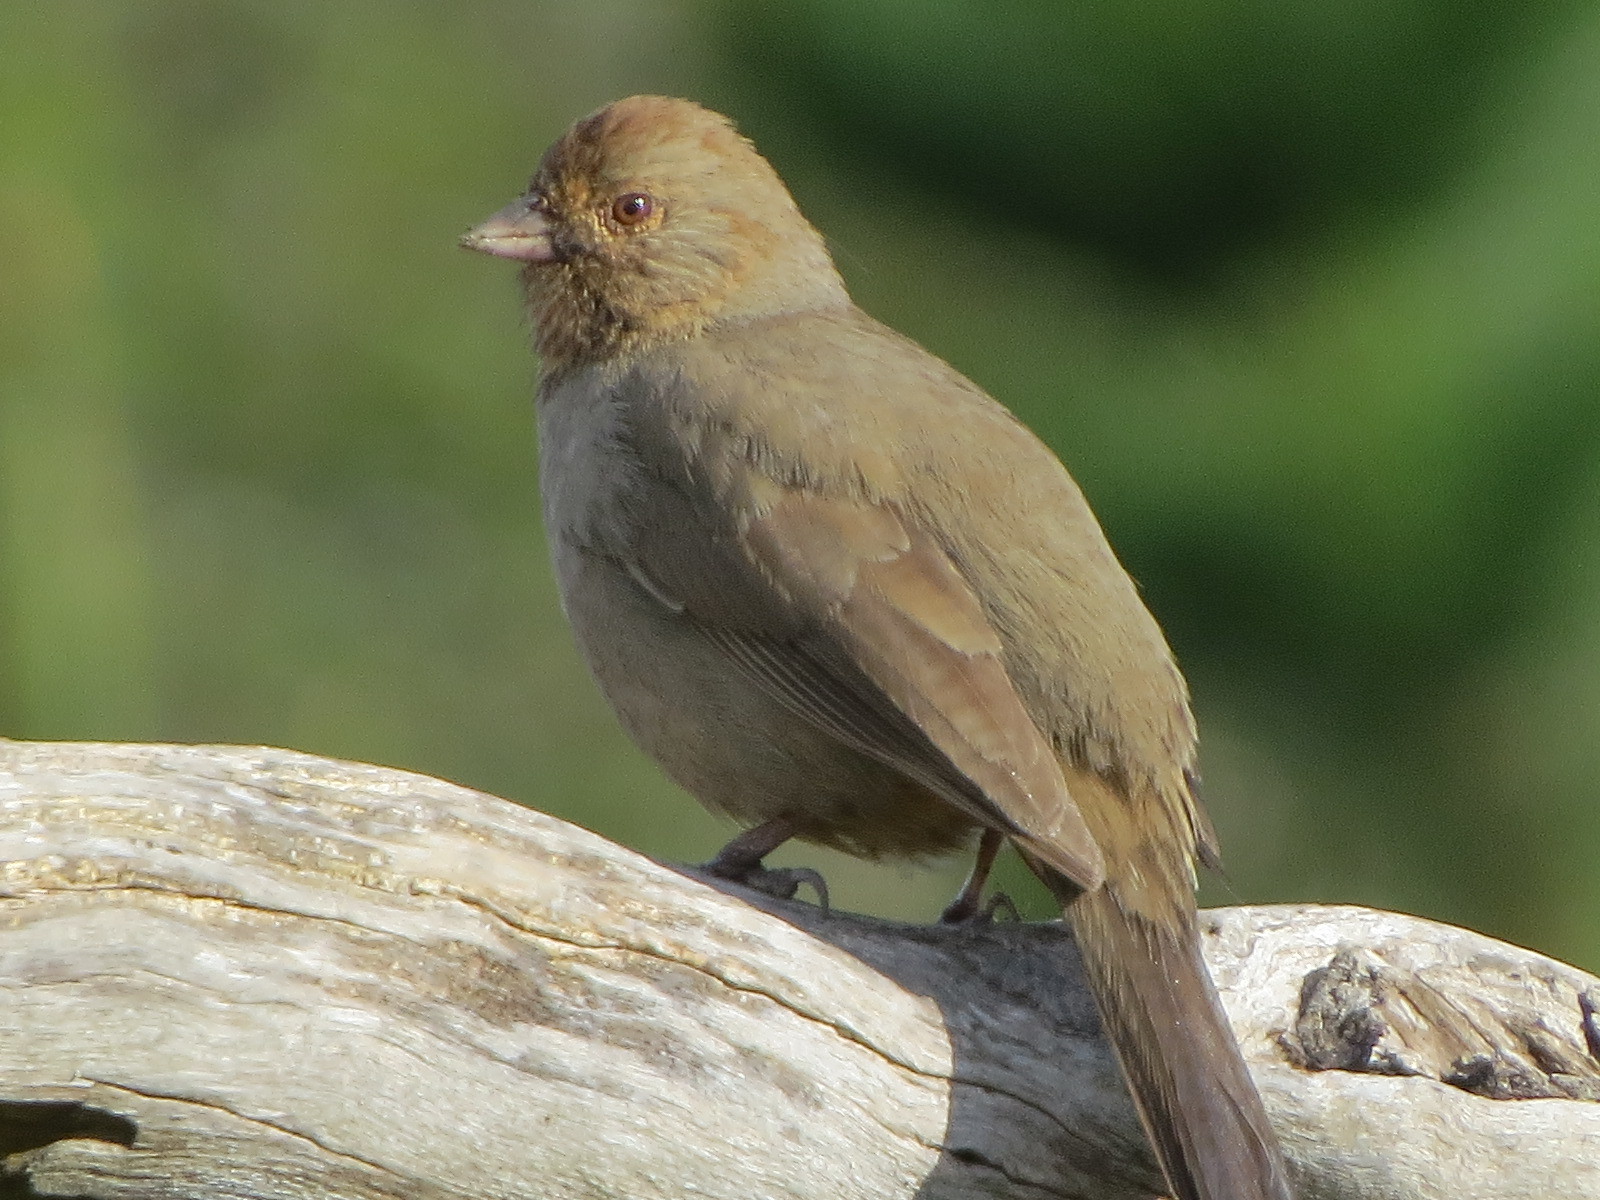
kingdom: Animalia
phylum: Chordata
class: Aves
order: Passeriformes
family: Passerellidae
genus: Melozone
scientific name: Melozone crissalis
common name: California towhee
